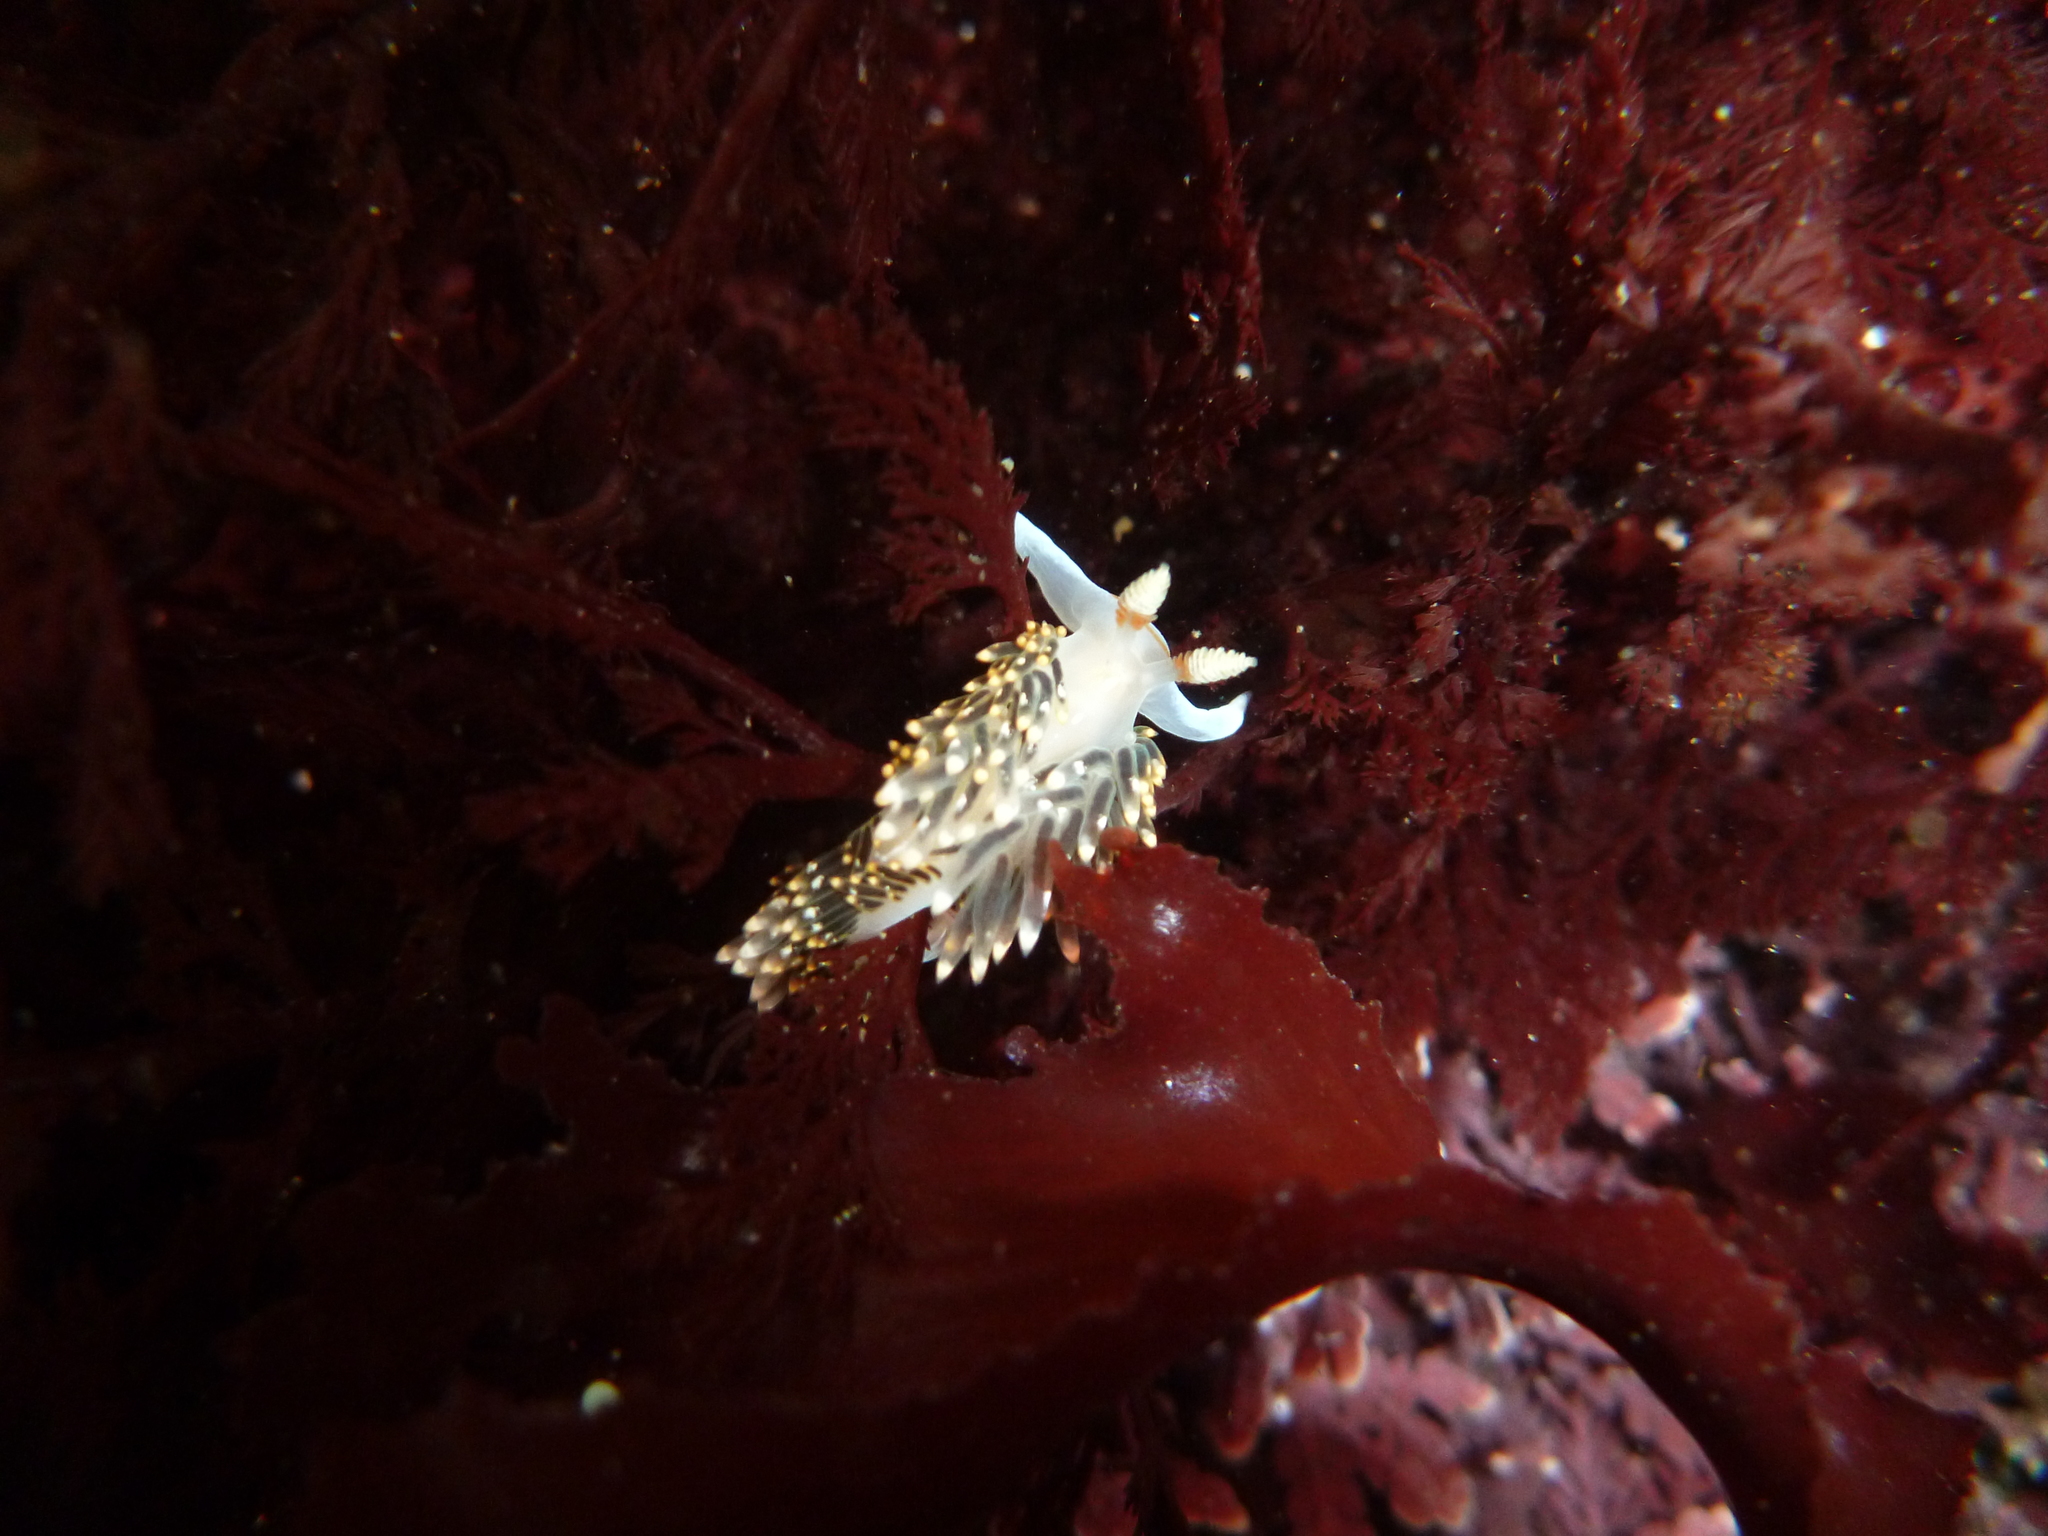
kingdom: Animalia
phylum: Mollusca
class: Gastropoda
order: Nudibranchia
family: Facelinidae
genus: Phidiana
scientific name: Phidiana hiltoni
